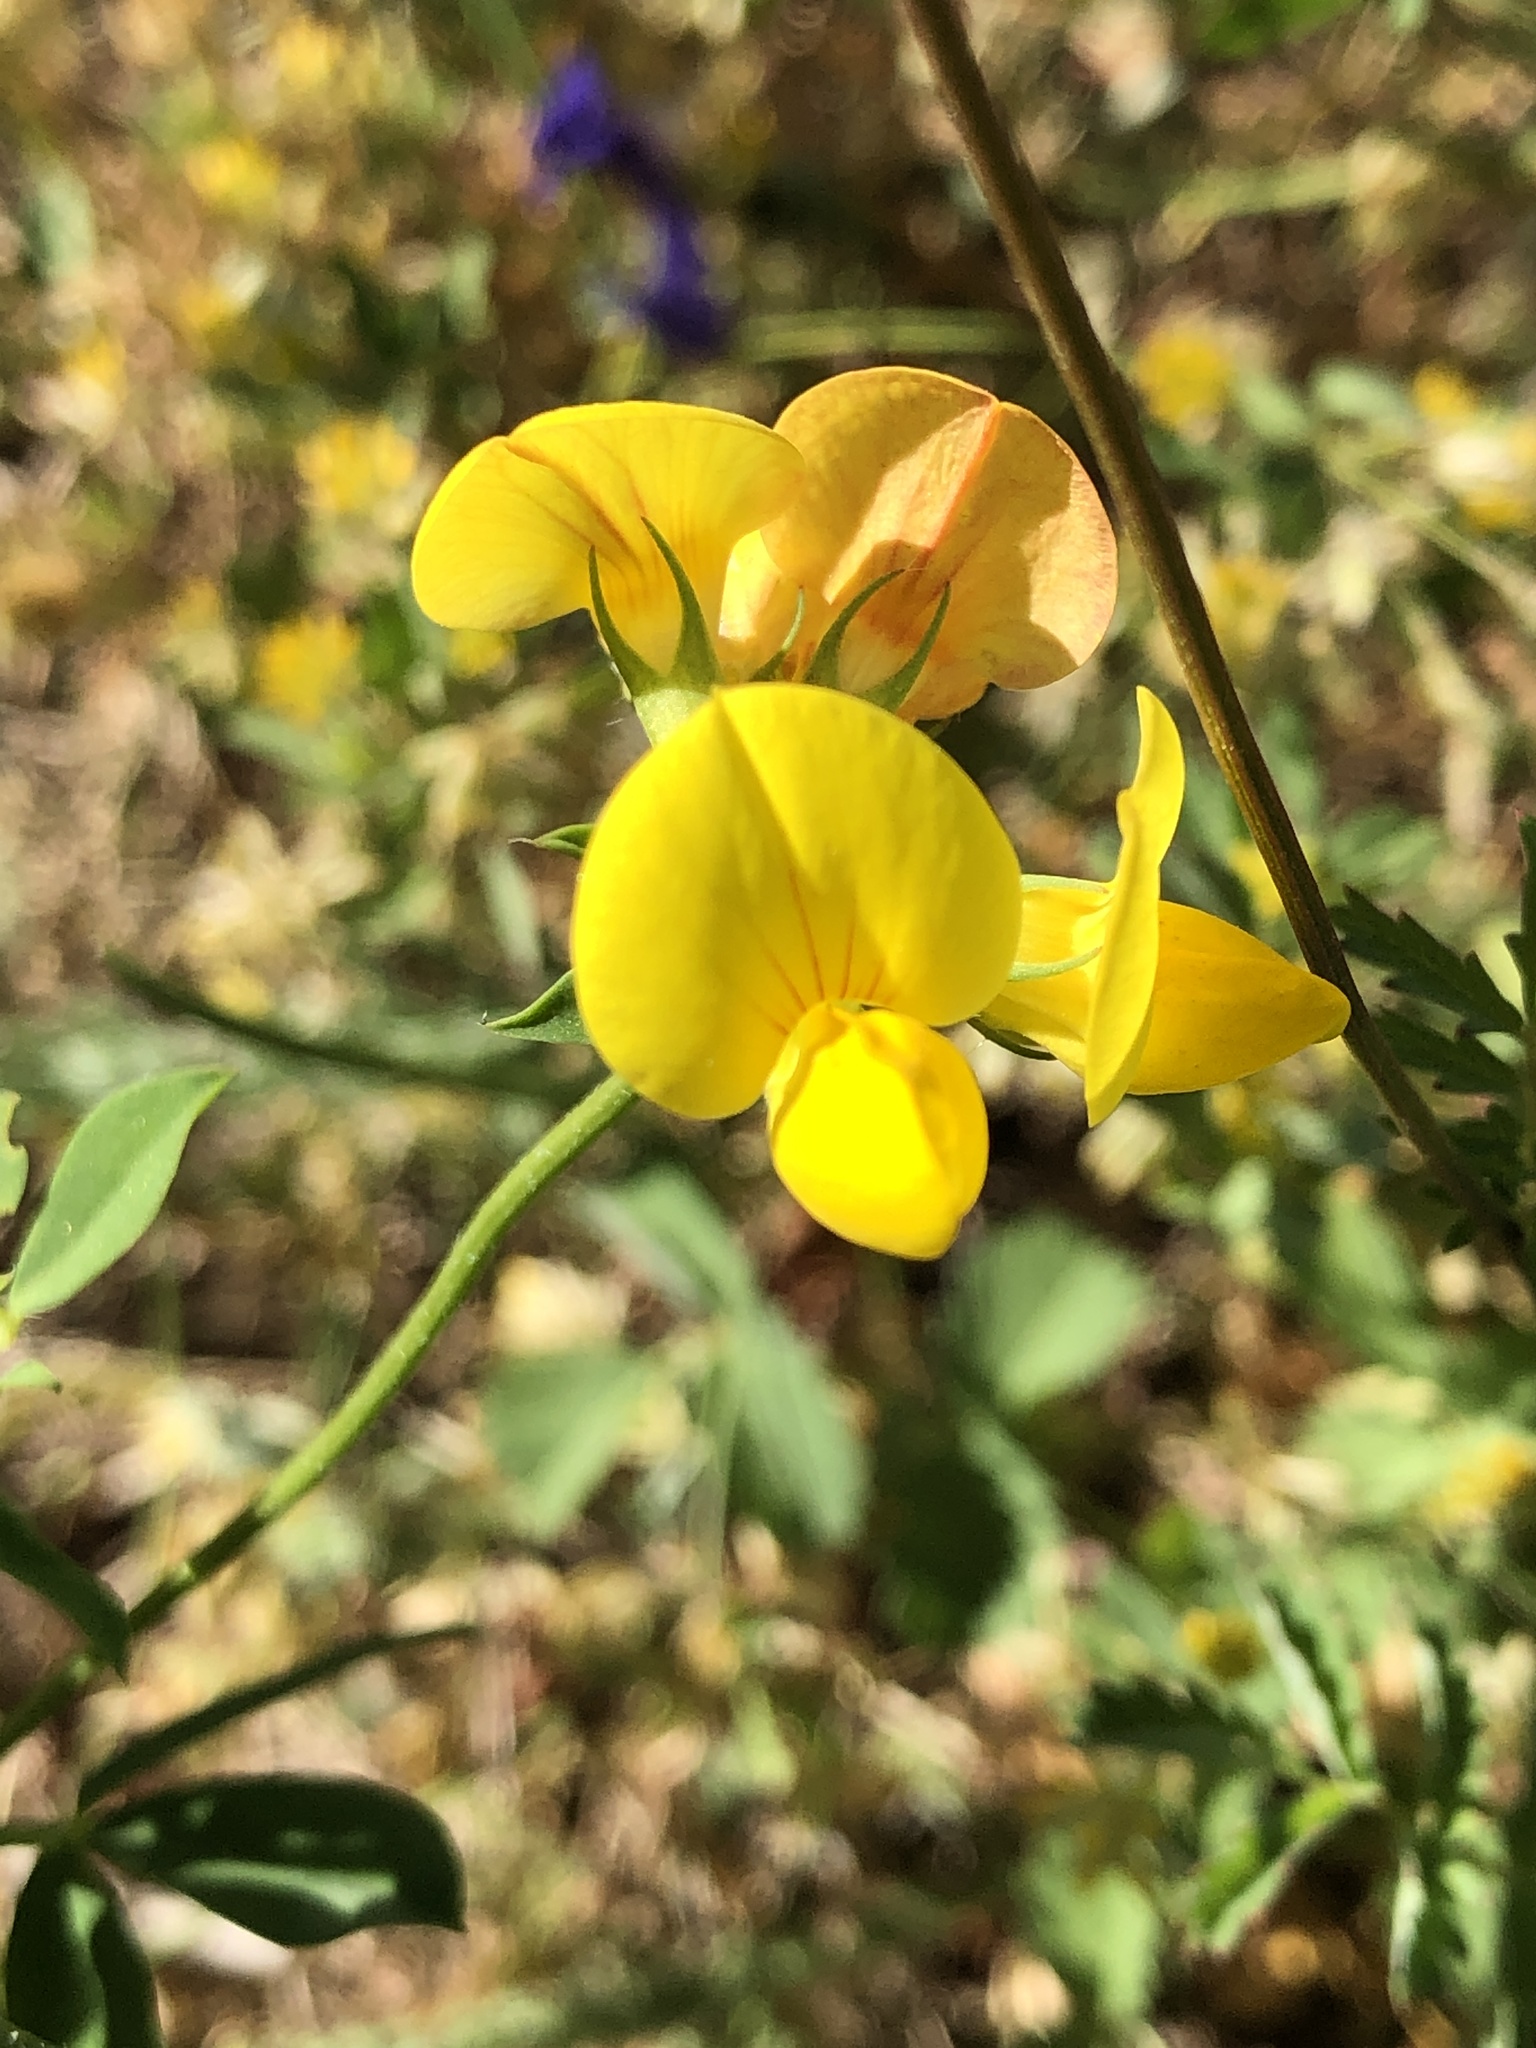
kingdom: Plantae
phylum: Tracheophyta
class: Magnoliopsida
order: Fabales
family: Fabaceae
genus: Lotus
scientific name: Lotus corniculatus
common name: Common bird's-foot-trefoil
